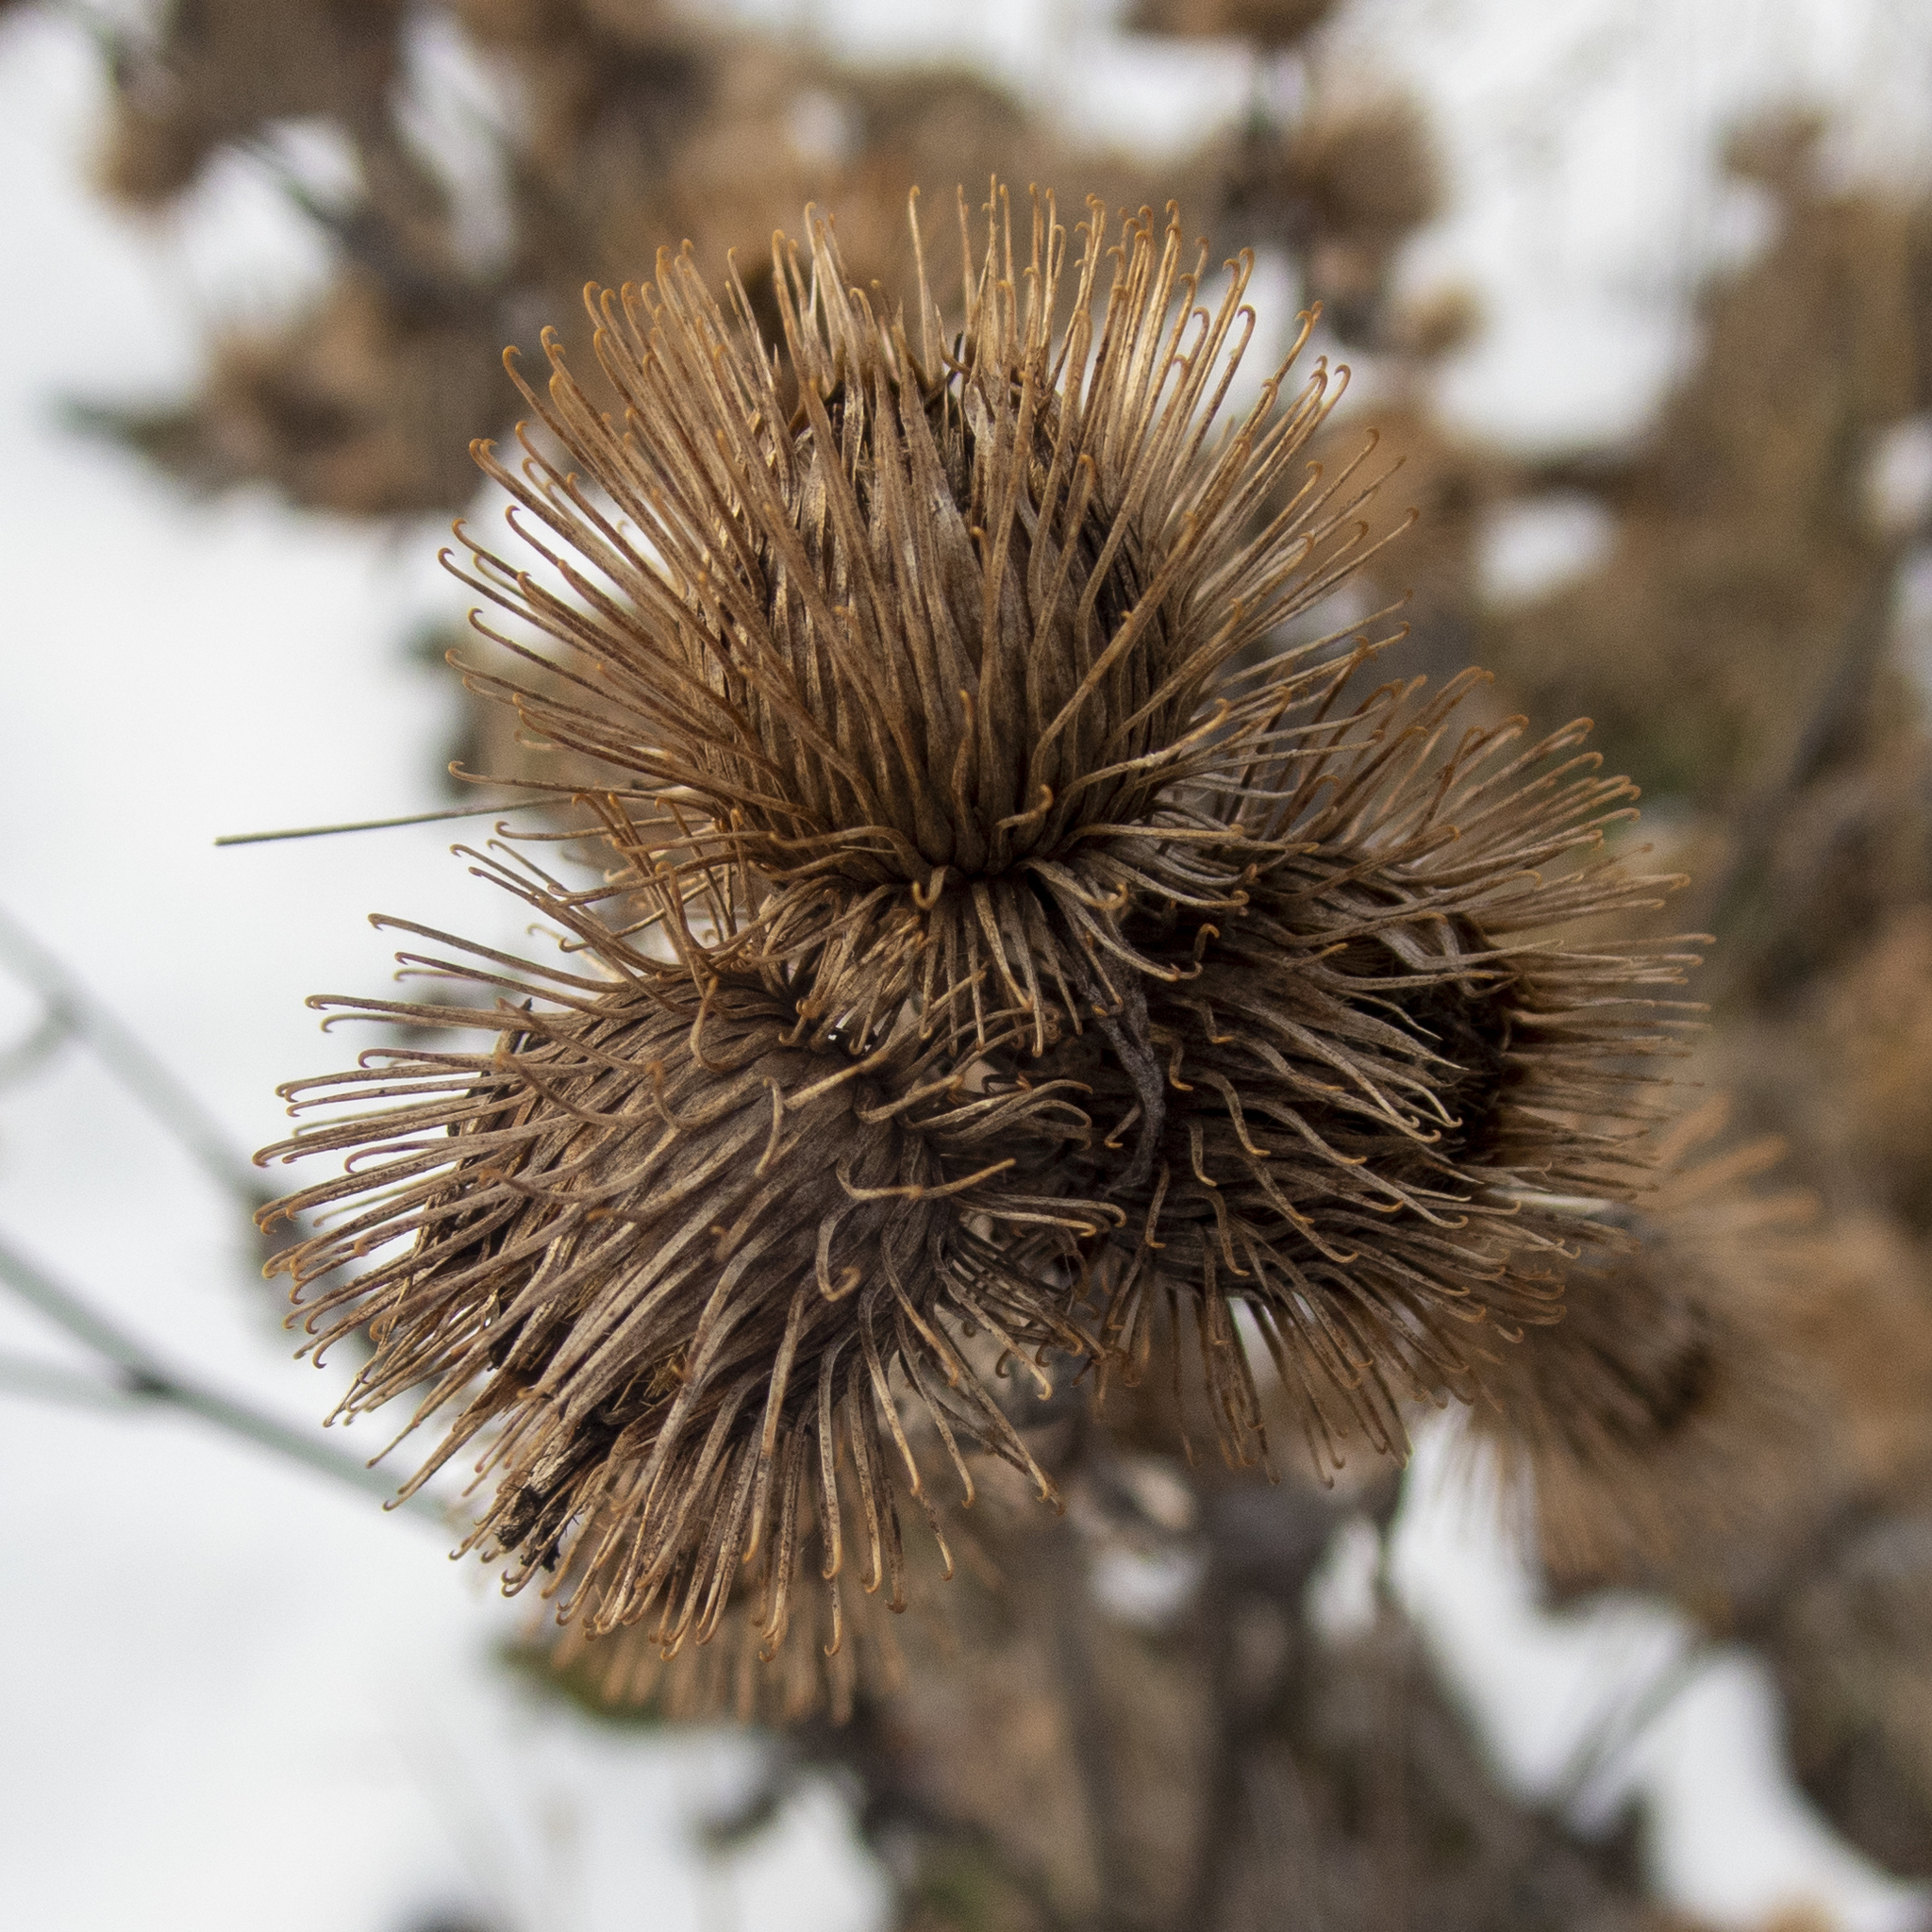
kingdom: Plantae
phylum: Tracheophyta
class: Magnoliopsida
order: Asterales
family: Asteraceae
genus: Arctium
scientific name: Arctium minus
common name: Lesser burdock
